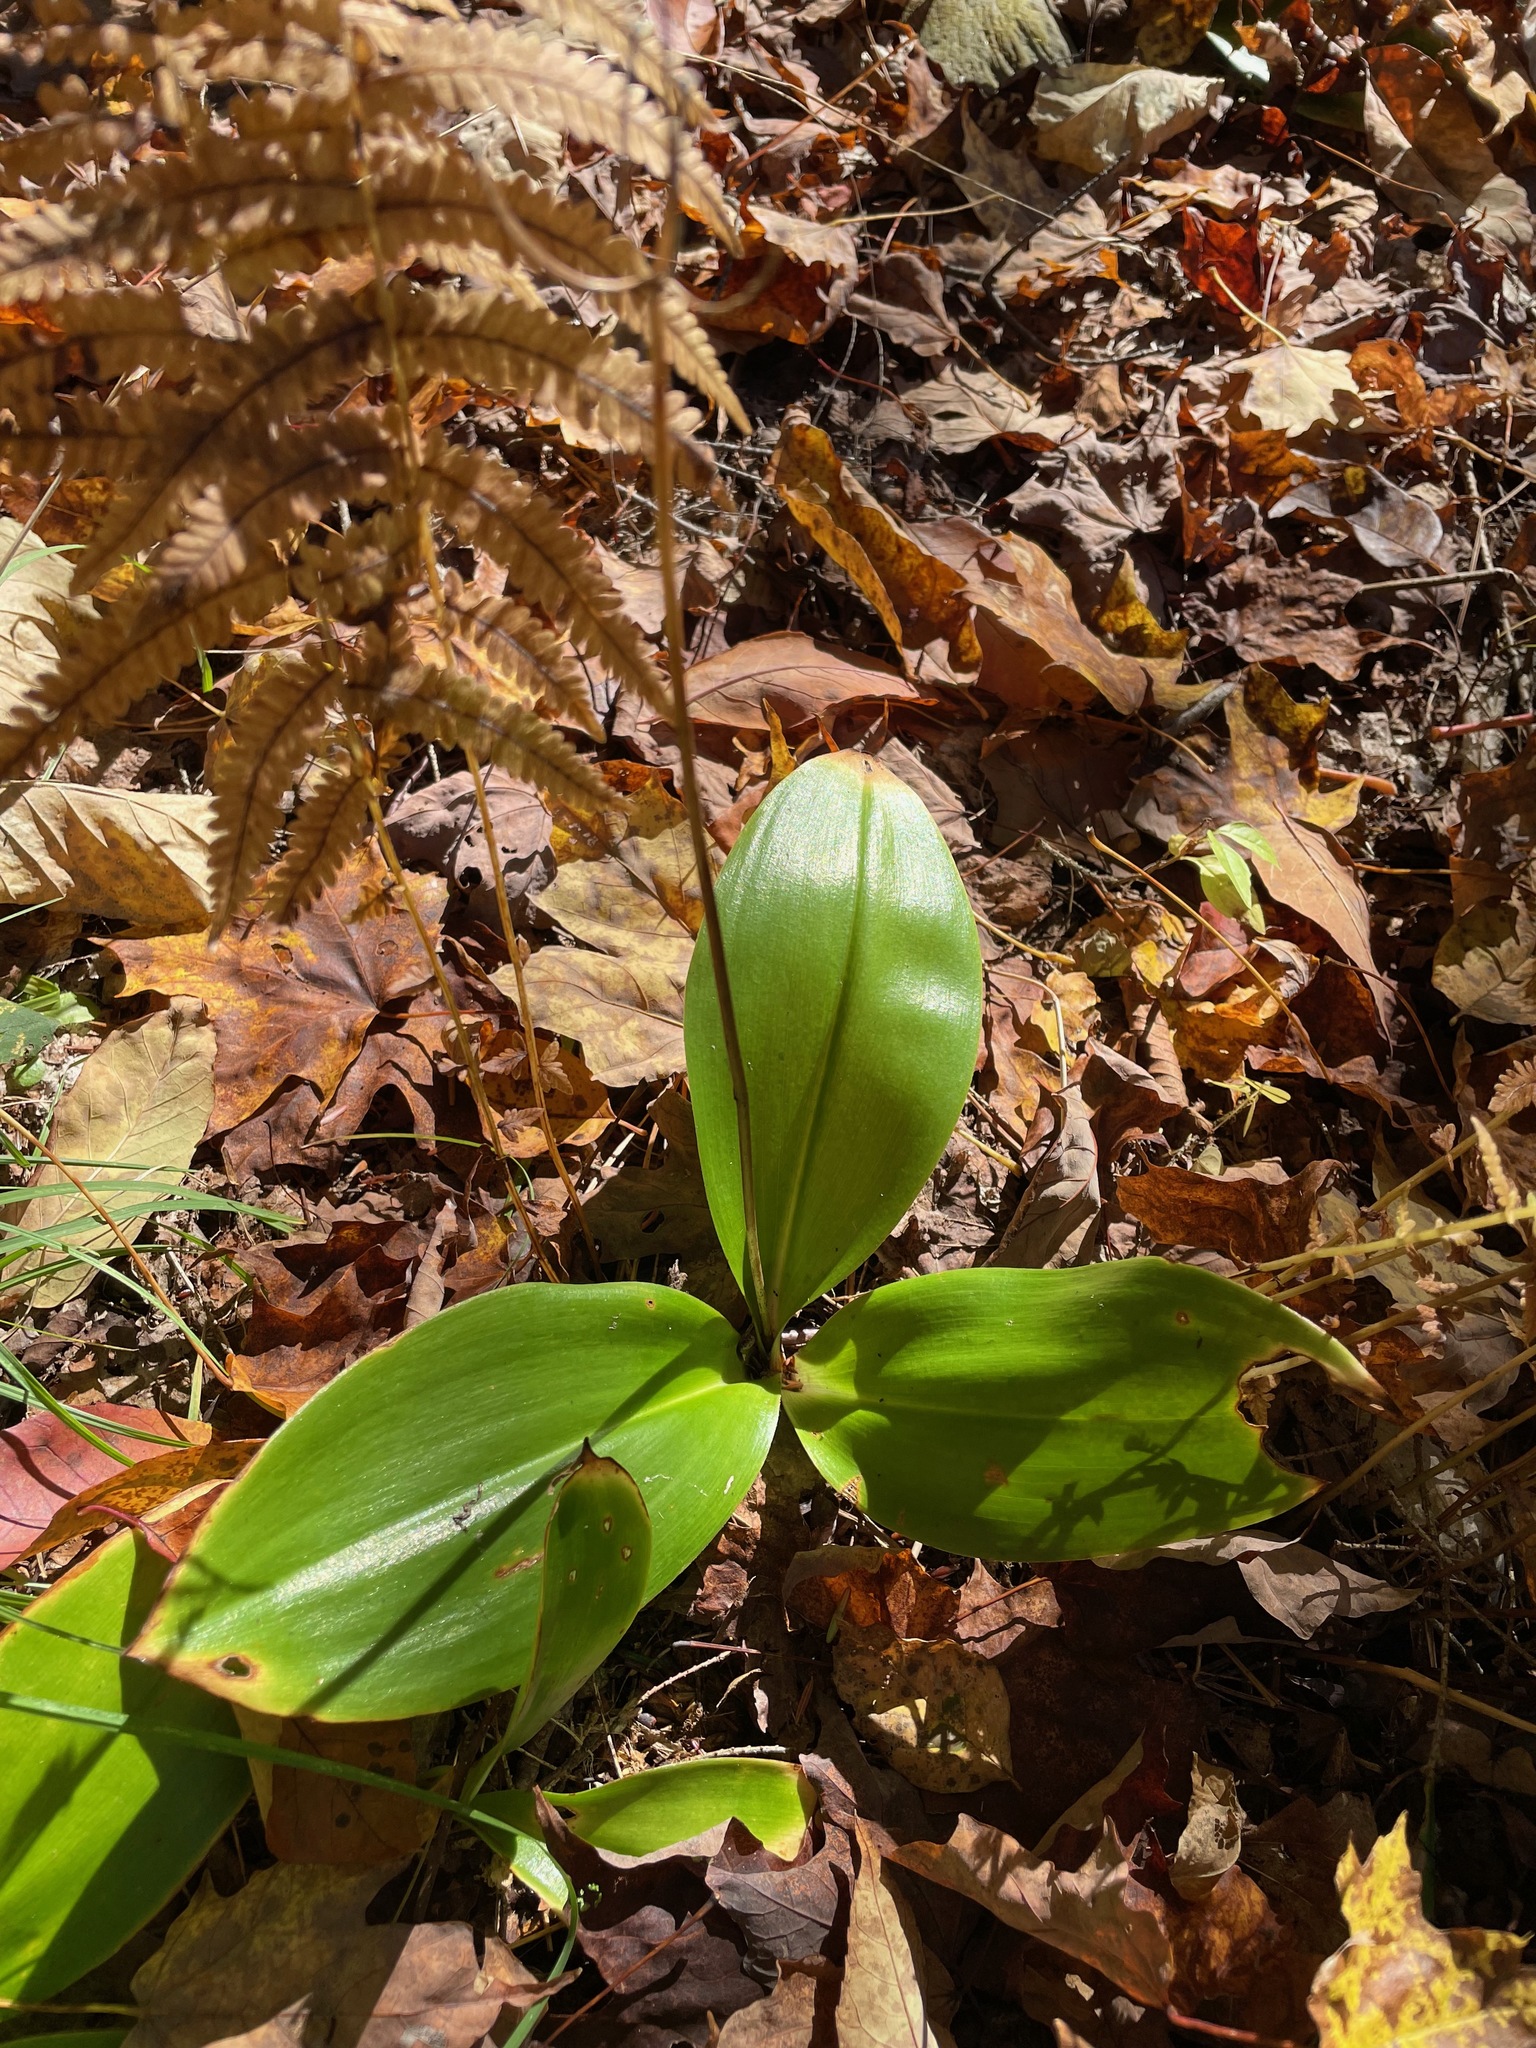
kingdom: Plantae
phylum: Tracheophyta
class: Liliopsida
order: Liliales
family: Liliaceae
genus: Clintonia
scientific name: Clintonia borealis
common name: Yellow clintonia
